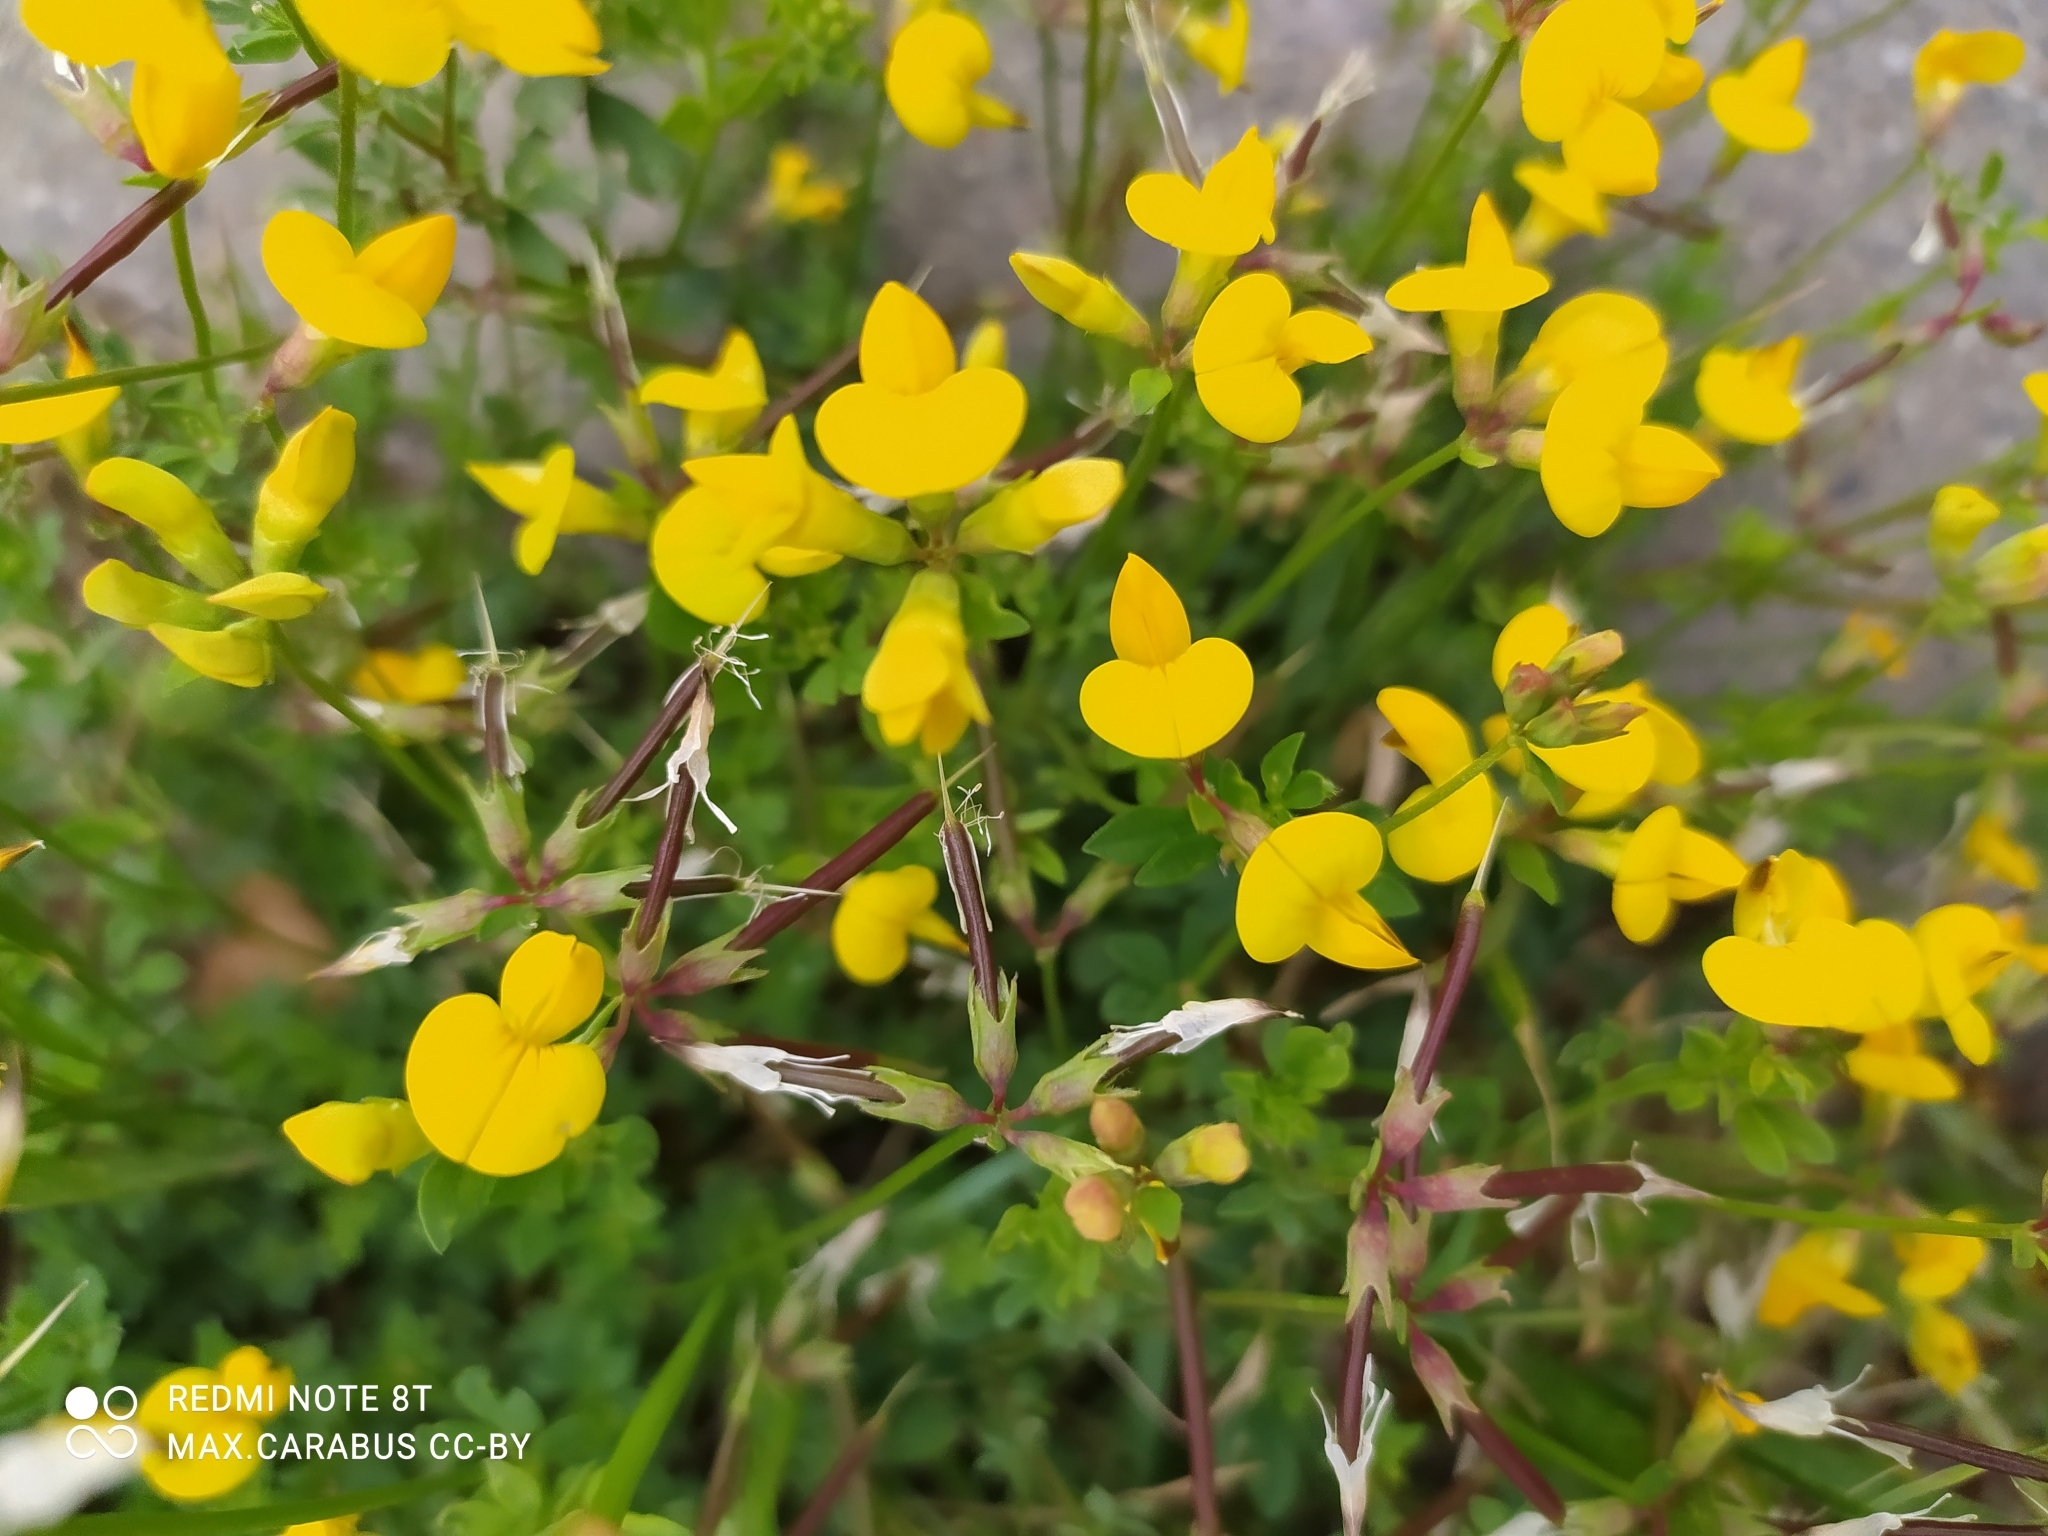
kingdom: Plantae
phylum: Tracheophyta
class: Magnoliopsida
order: Fabales
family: Fabaceae
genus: Lotus
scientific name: Lotus corniculatus
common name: Common bird's-foot-trefoil
